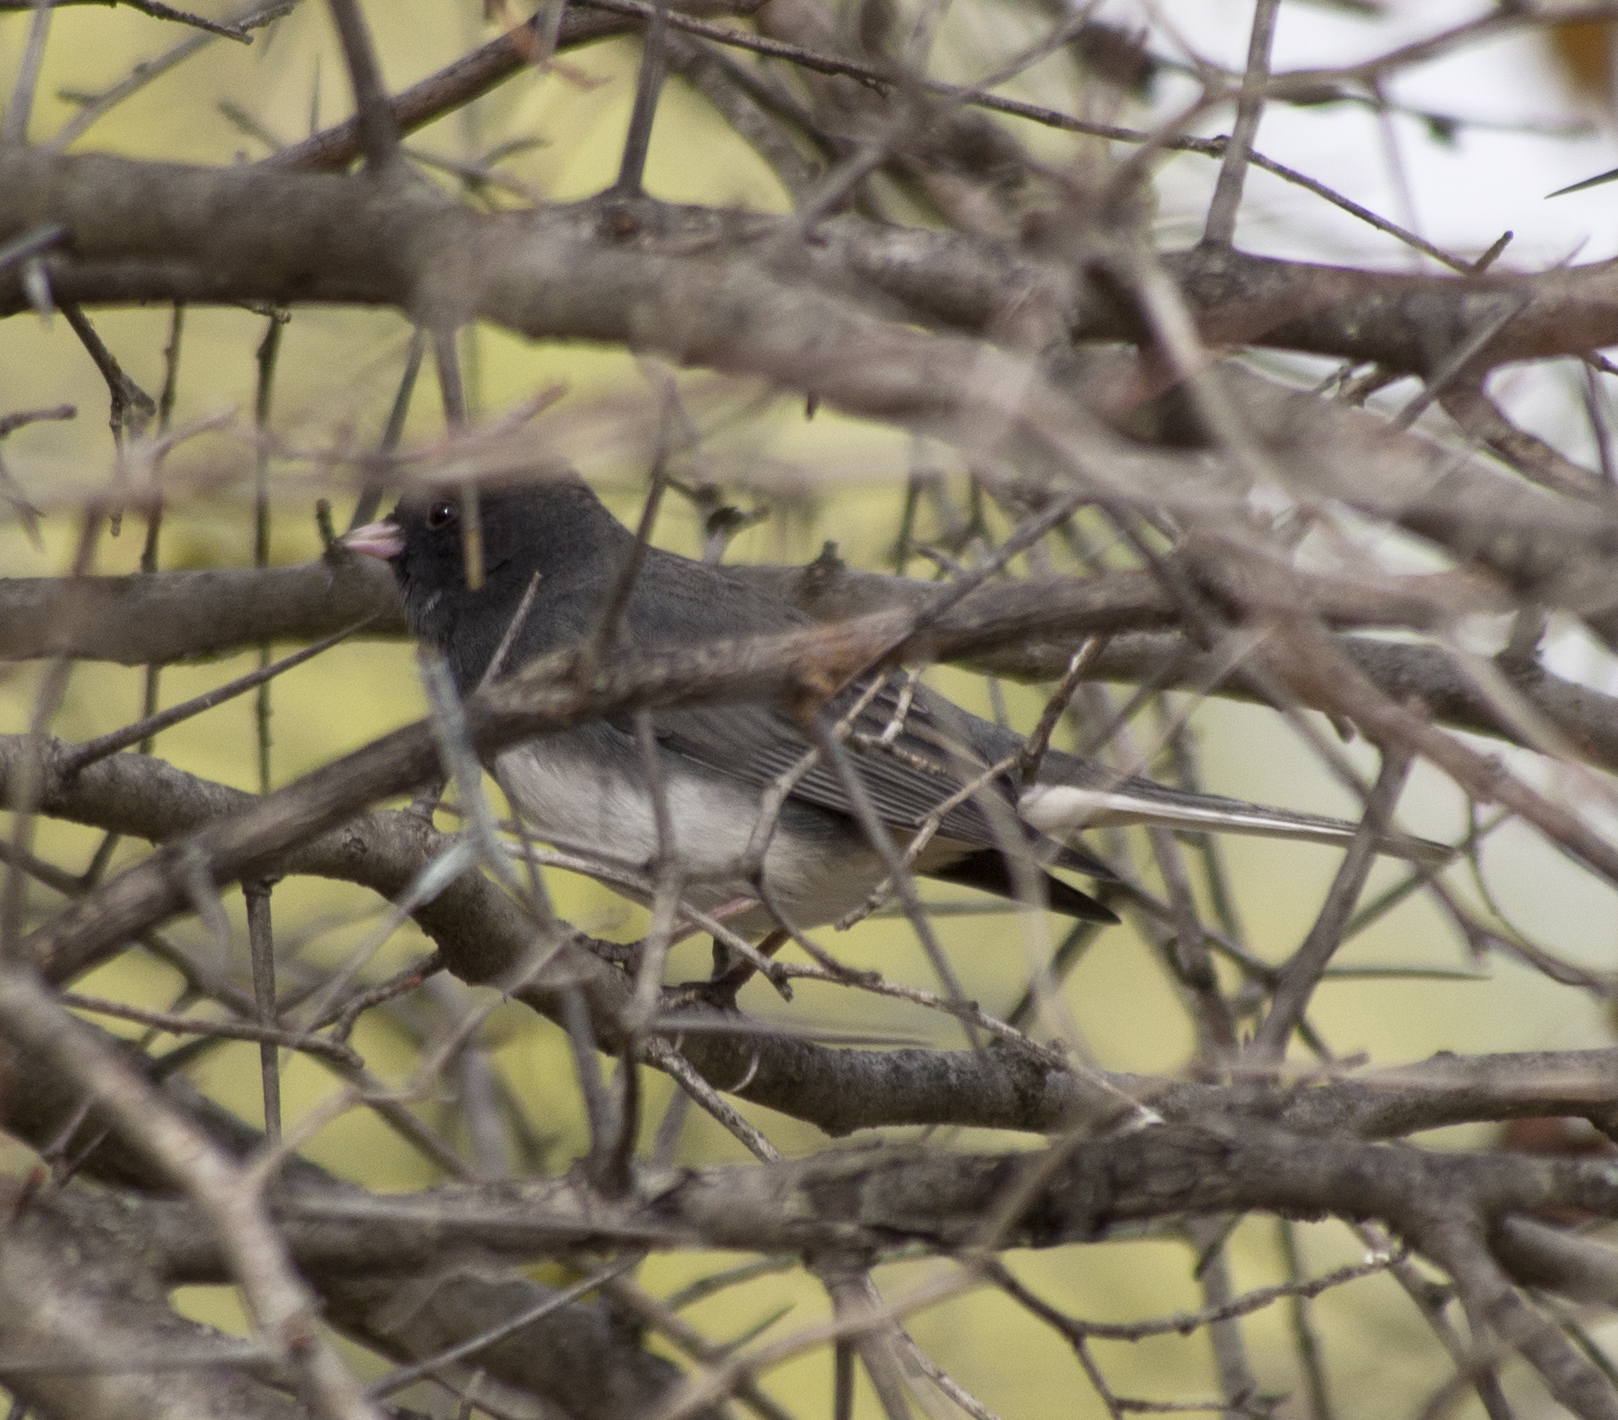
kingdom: Animalia
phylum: Chordata
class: Aves
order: Passeriformes
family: Passerellidae
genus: Junco
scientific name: Junco hyemalis
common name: Dark-eyed junco
